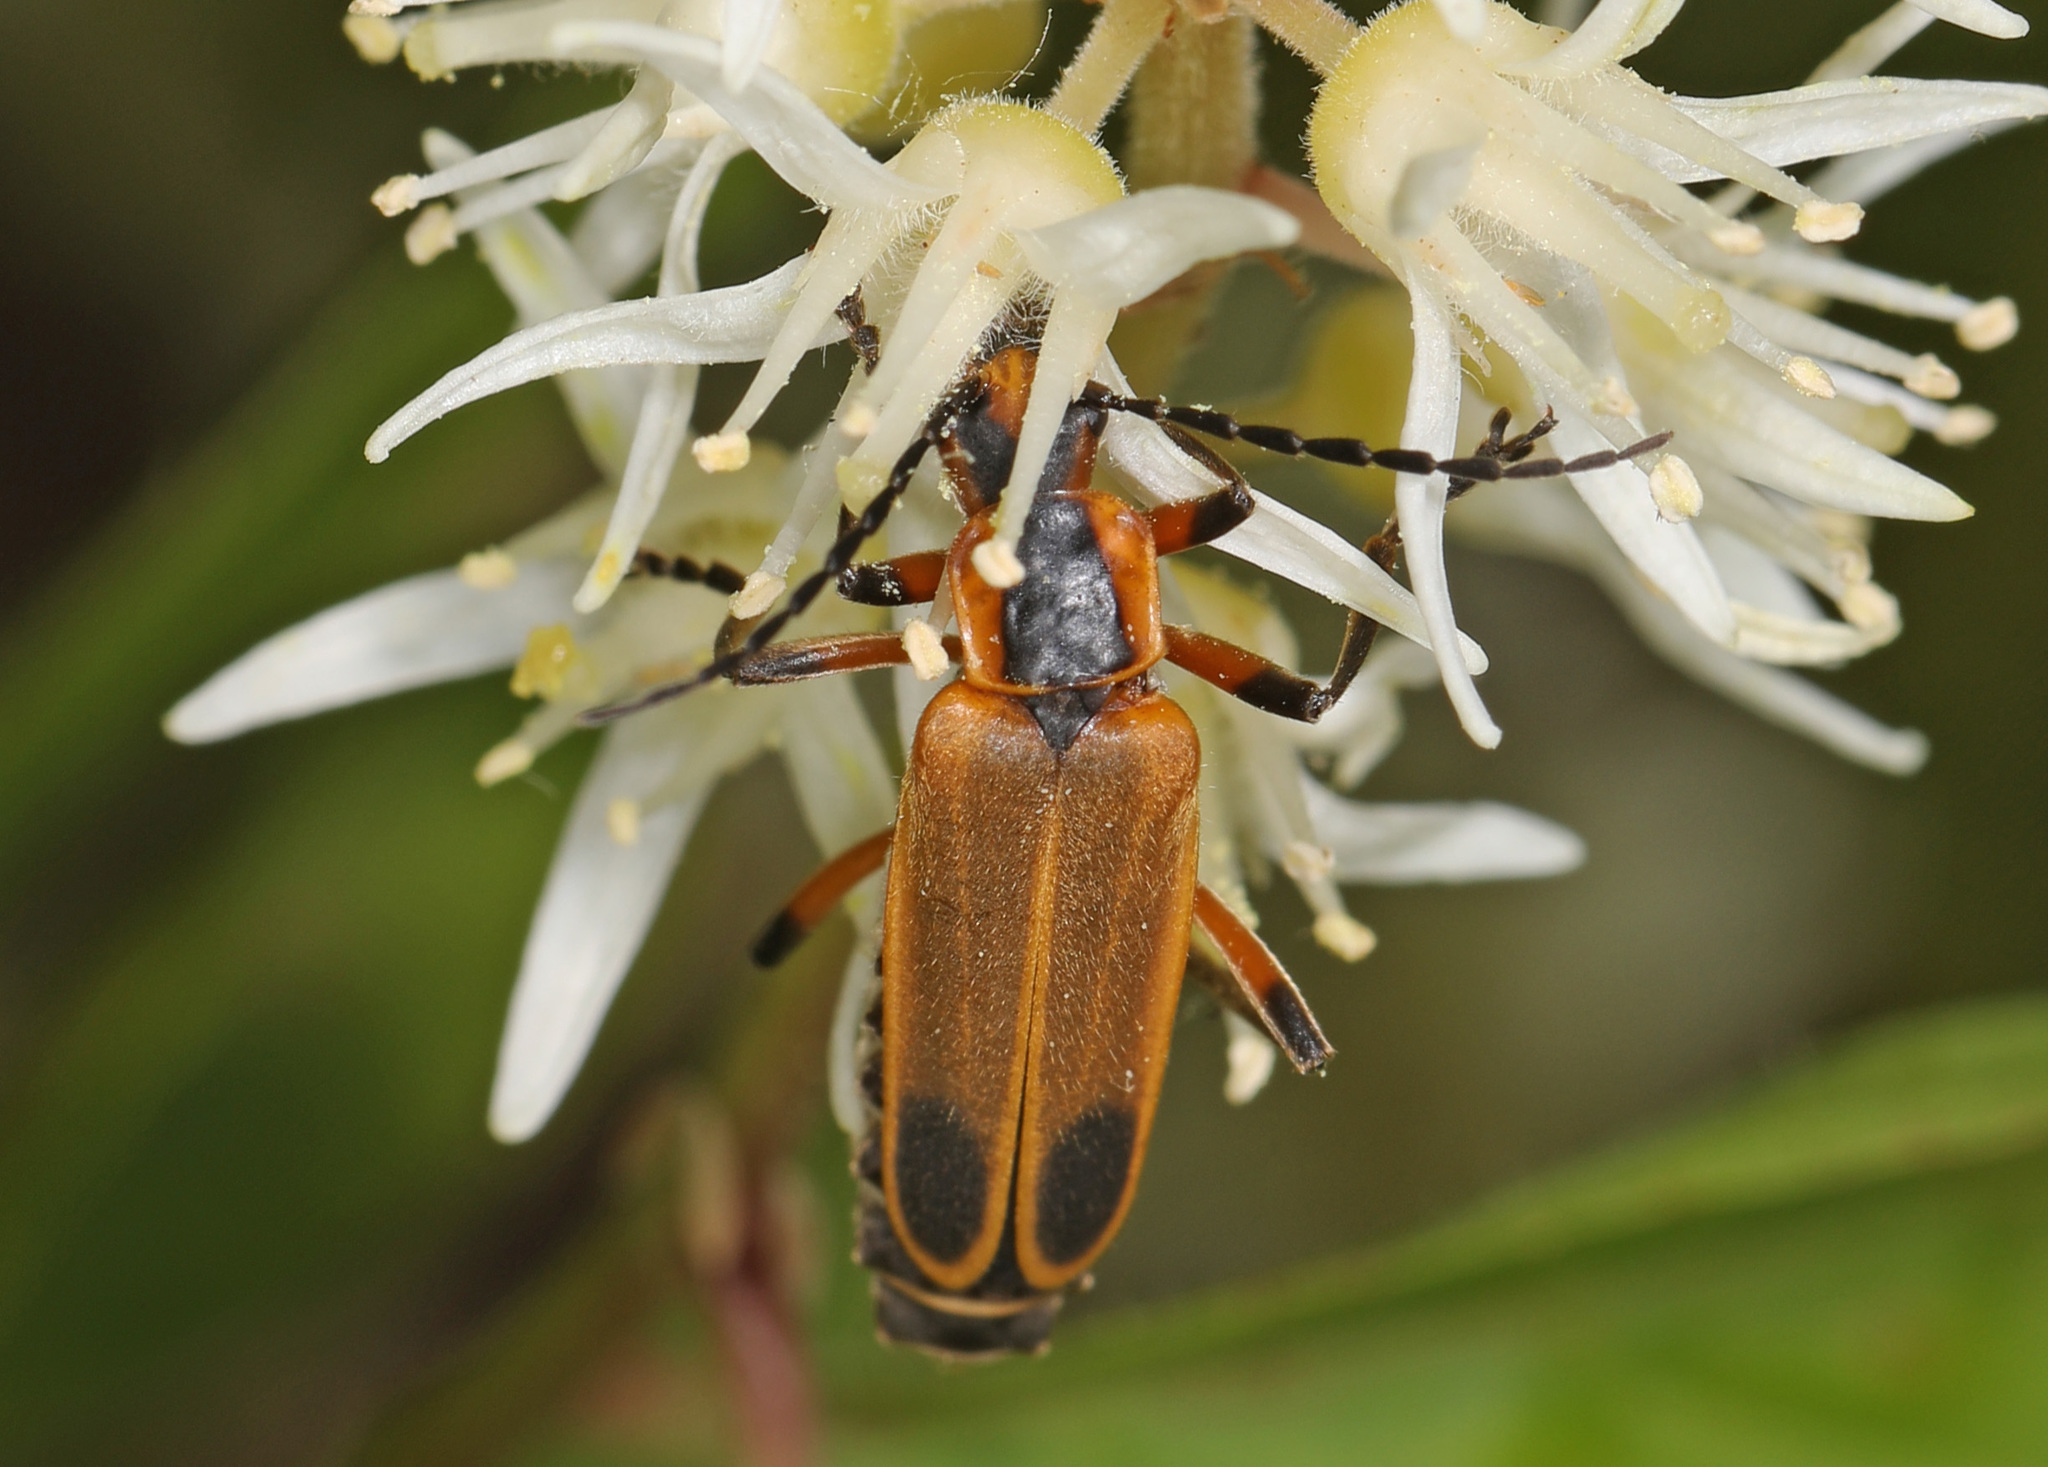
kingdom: Animalia
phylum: Arthropoda
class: Insecta
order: Coleoptera
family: Cantharidae
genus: Chauliognathus
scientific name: Chauliognathus marginatus
